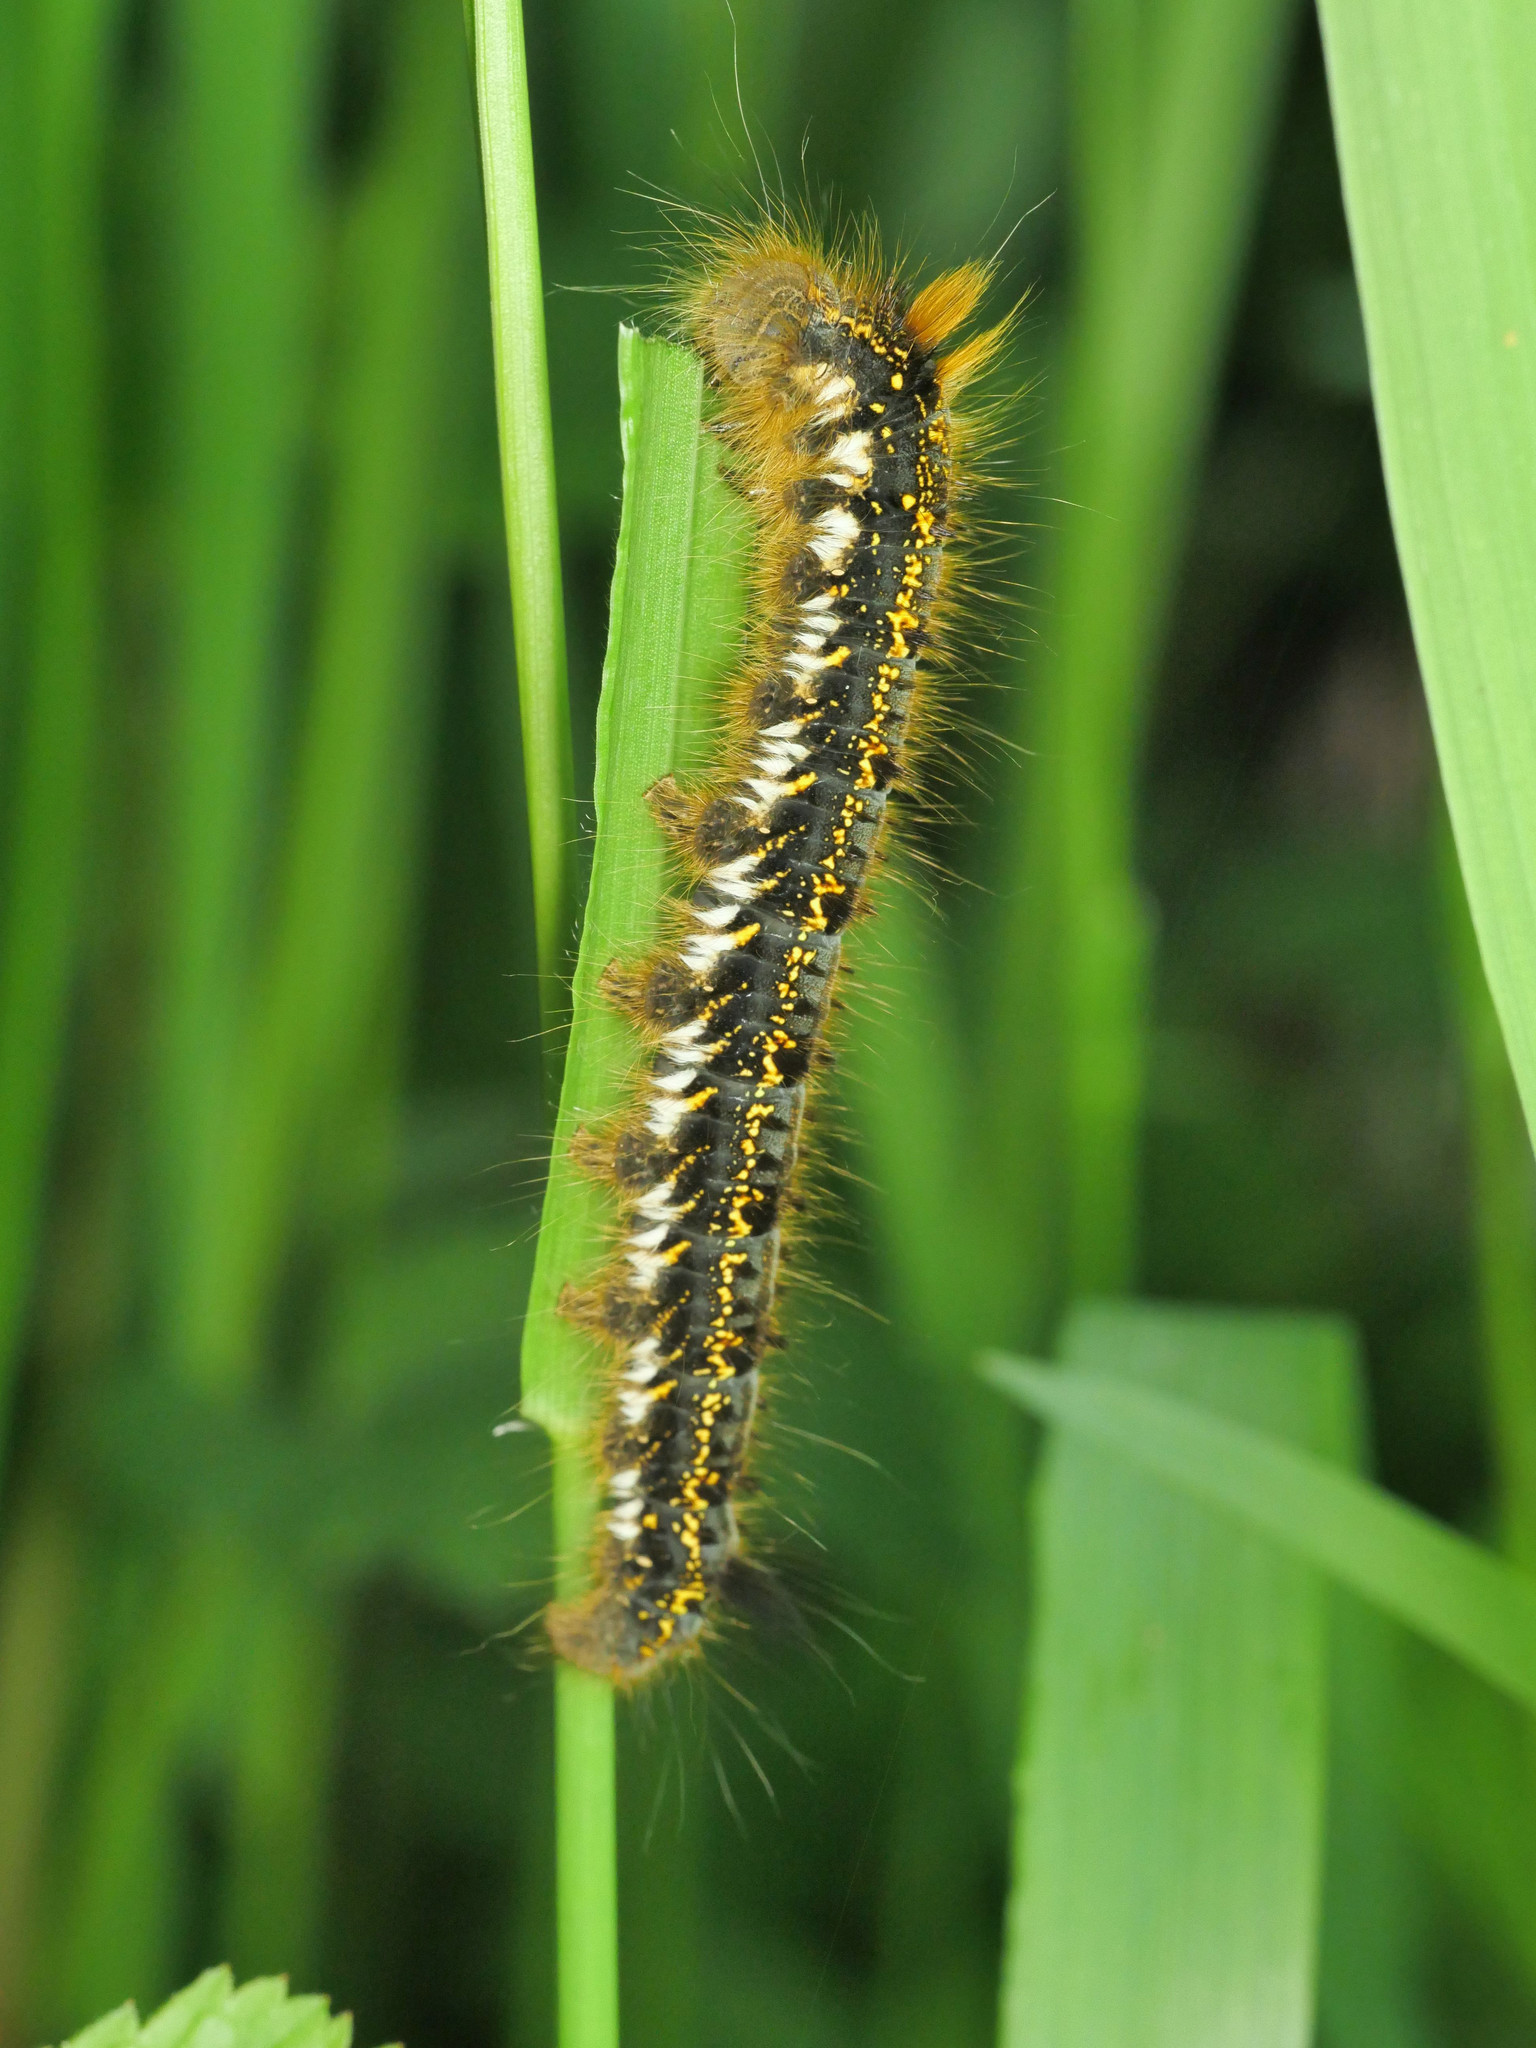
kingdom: Animalia
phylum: Arthropoda
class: Insecta
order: Lepidoptera
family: Lasiocampidae
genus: Euthrix
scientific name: Euthrix potatoria
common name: Drinker
